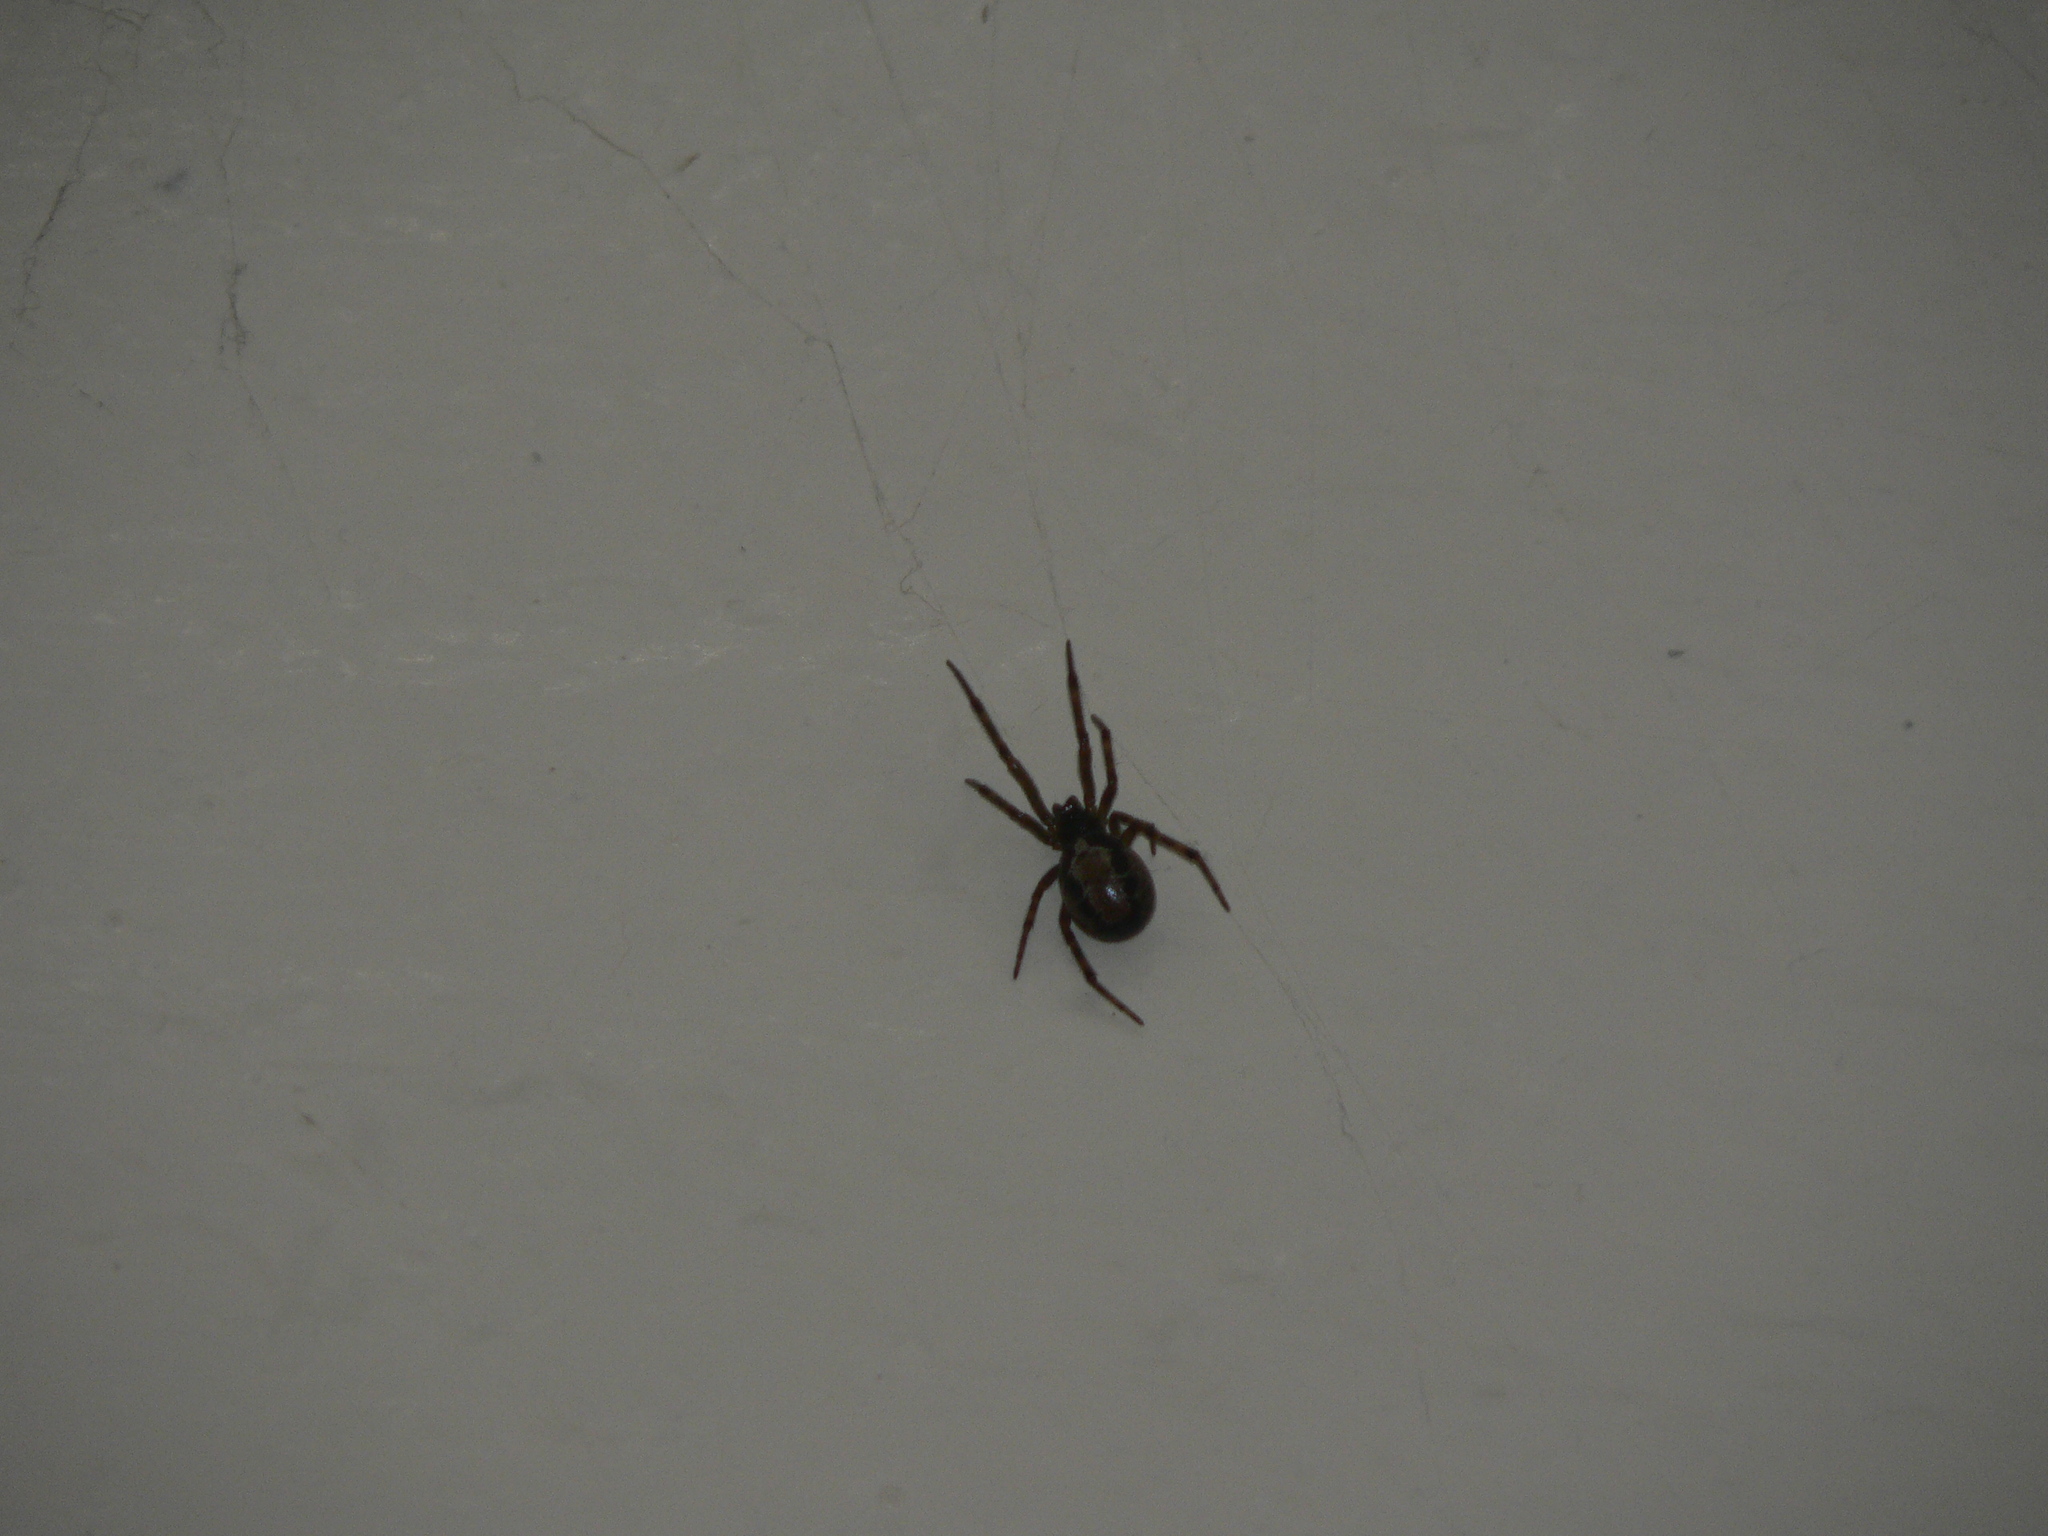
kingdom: Animalia
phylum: Arthropoda
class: Arachnida
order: Araneae
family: Theridiidae
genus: Steatoda
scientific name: Steatoda nobilis
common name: Cobweb weaver
